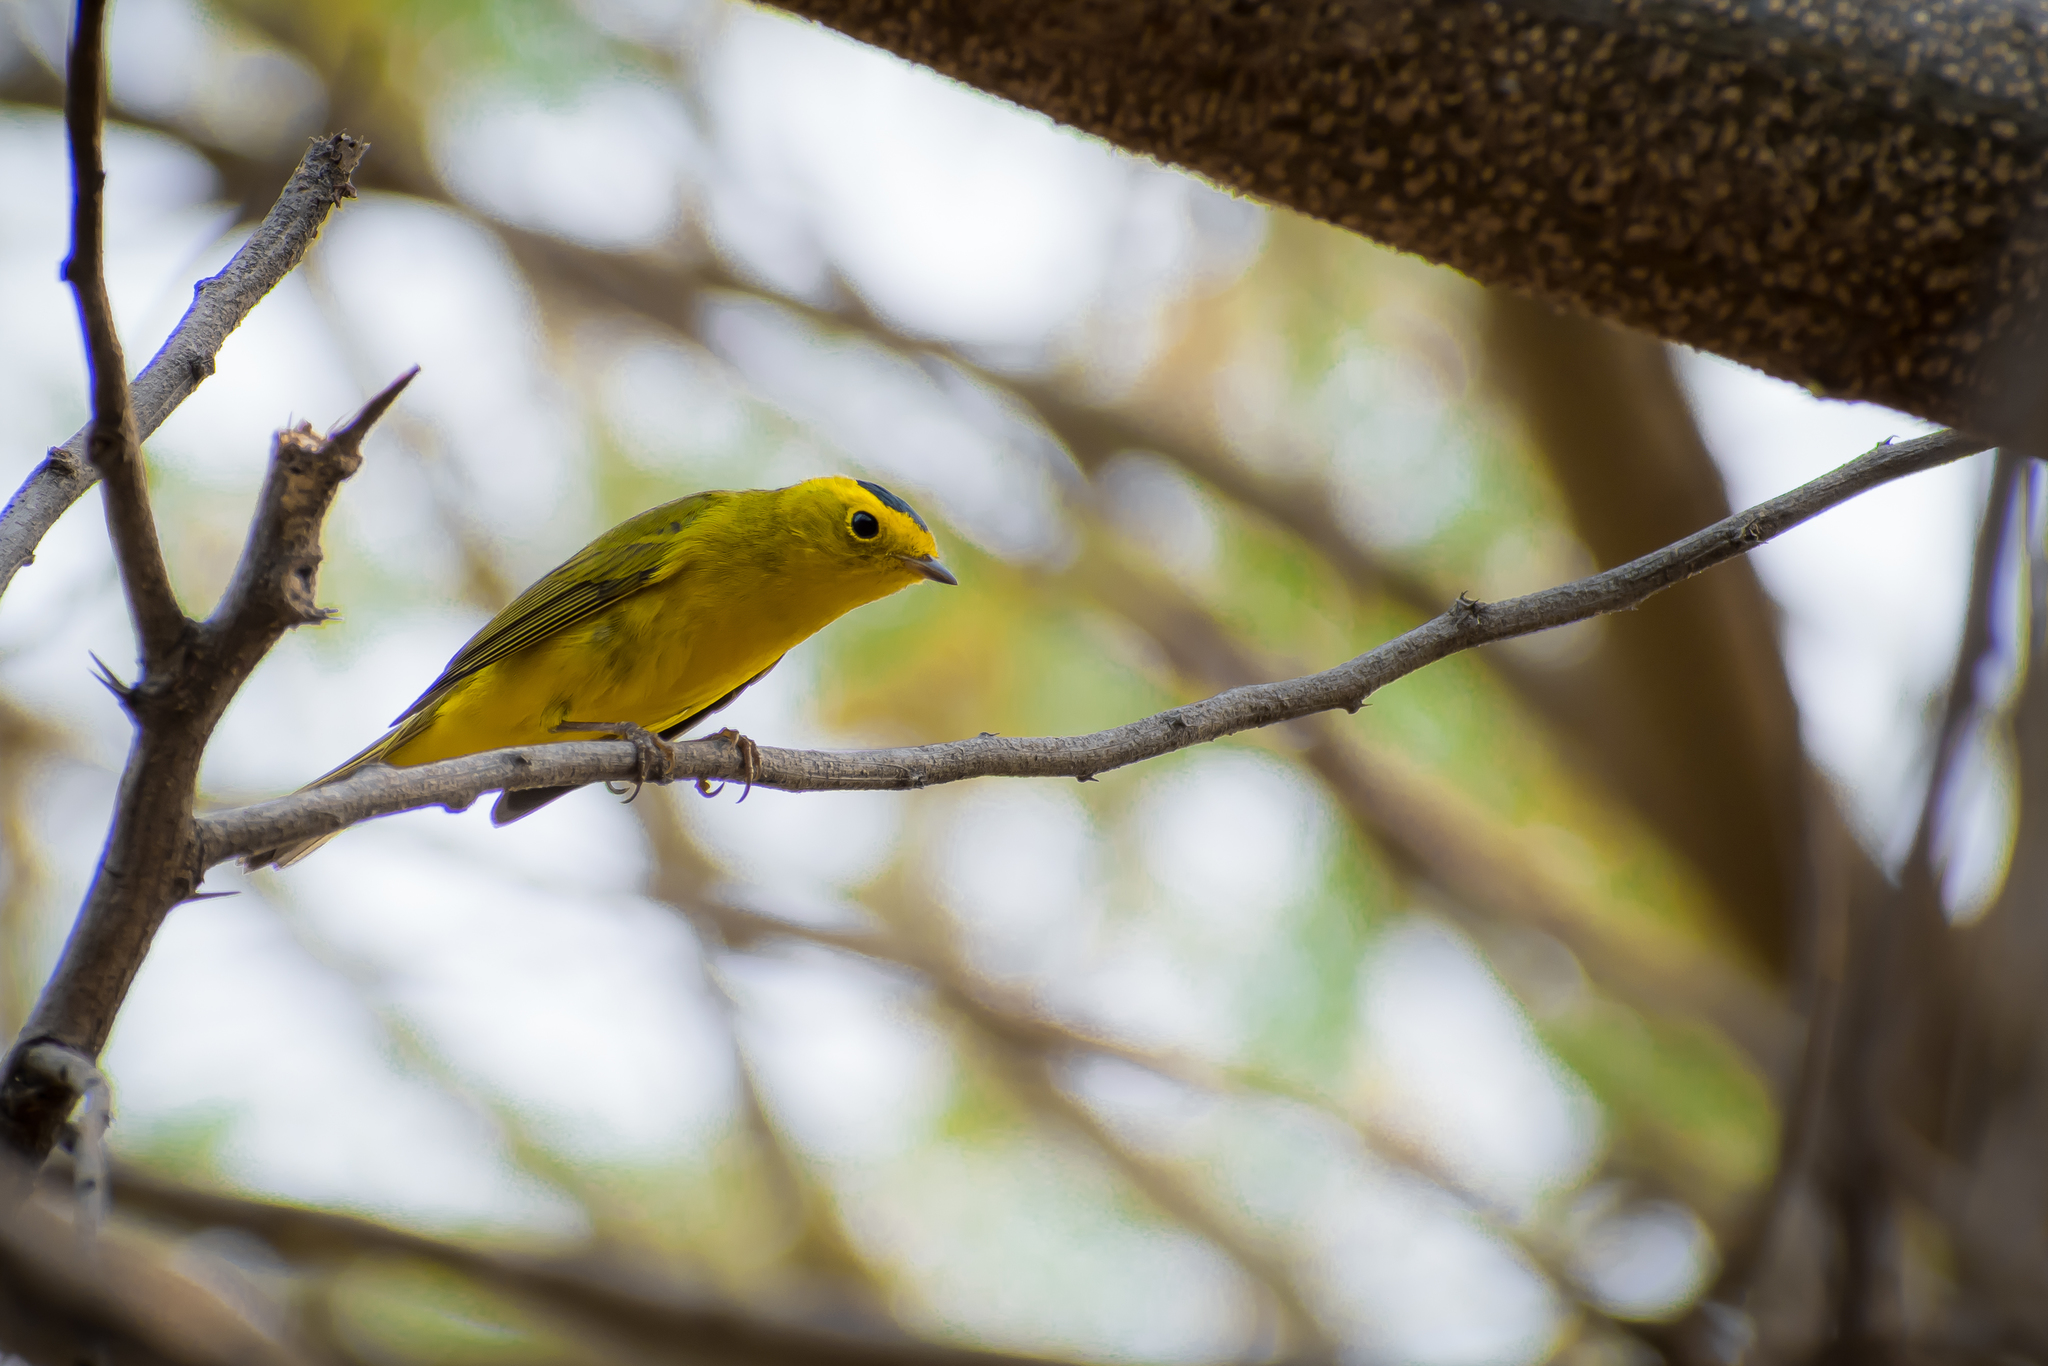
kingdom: Animalia
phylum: Chordata
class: Aves
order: Passeriformes
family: Parulidae
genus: Cardellina
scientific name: Cardellina pusilla
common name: Wilson's warbler
